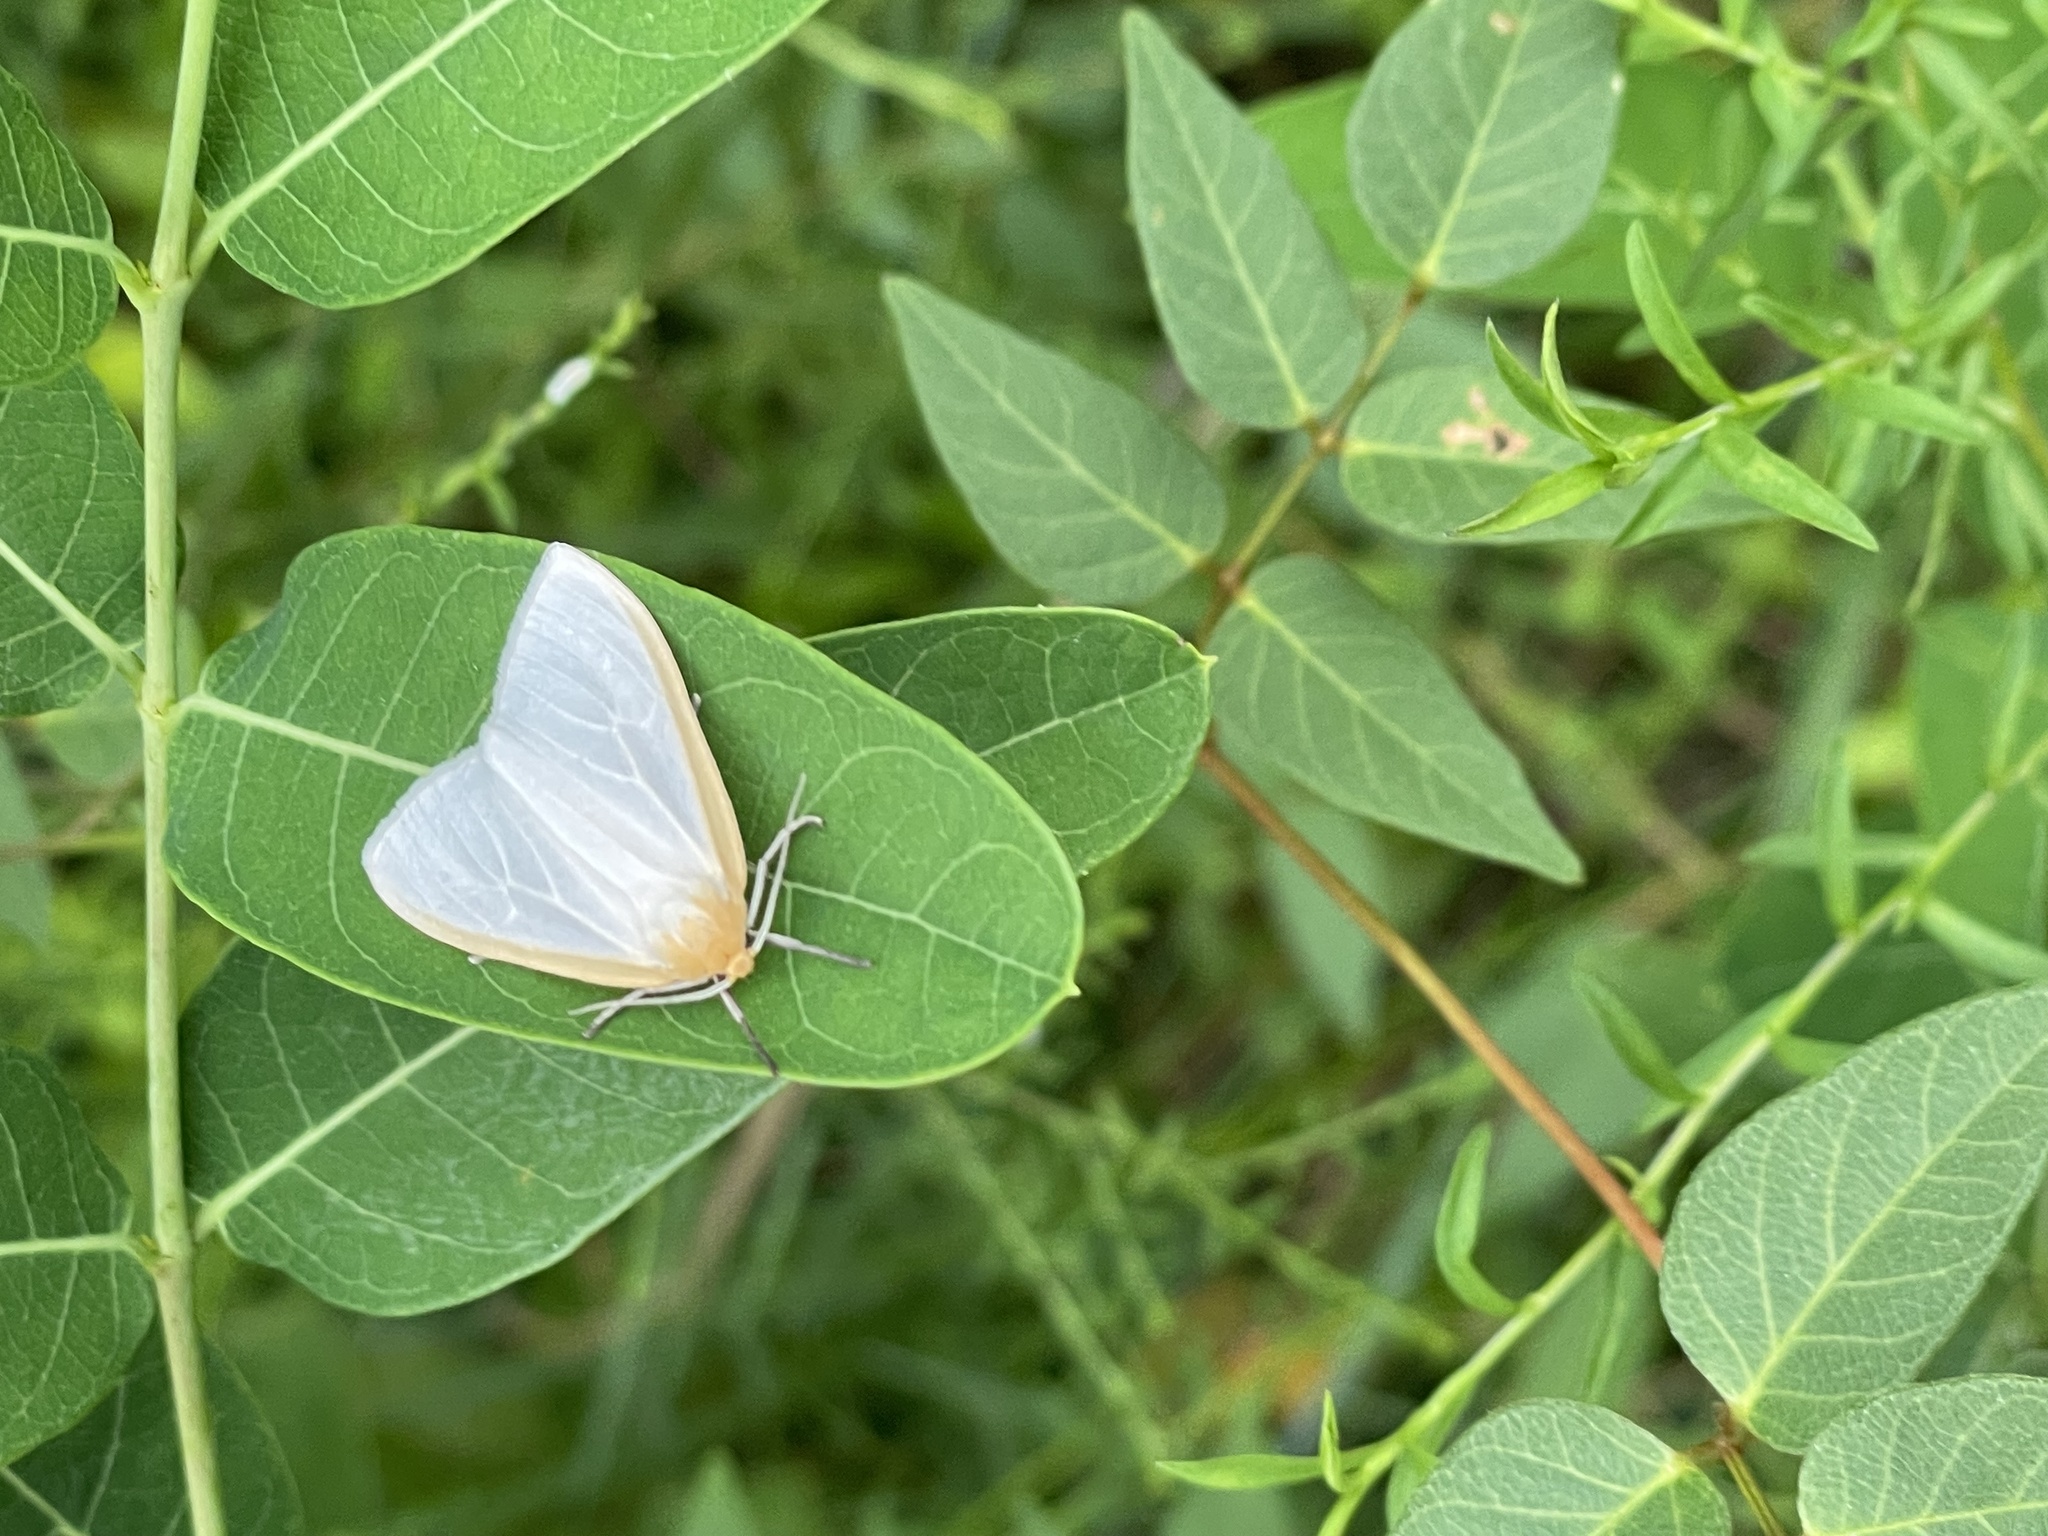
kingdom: Animalia
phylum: Arthropoda
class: Insecta
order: Lepidoptera
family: Erebidae
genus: Cycnia
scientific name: Cycnia tenera
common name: Delicate cycnia moth
